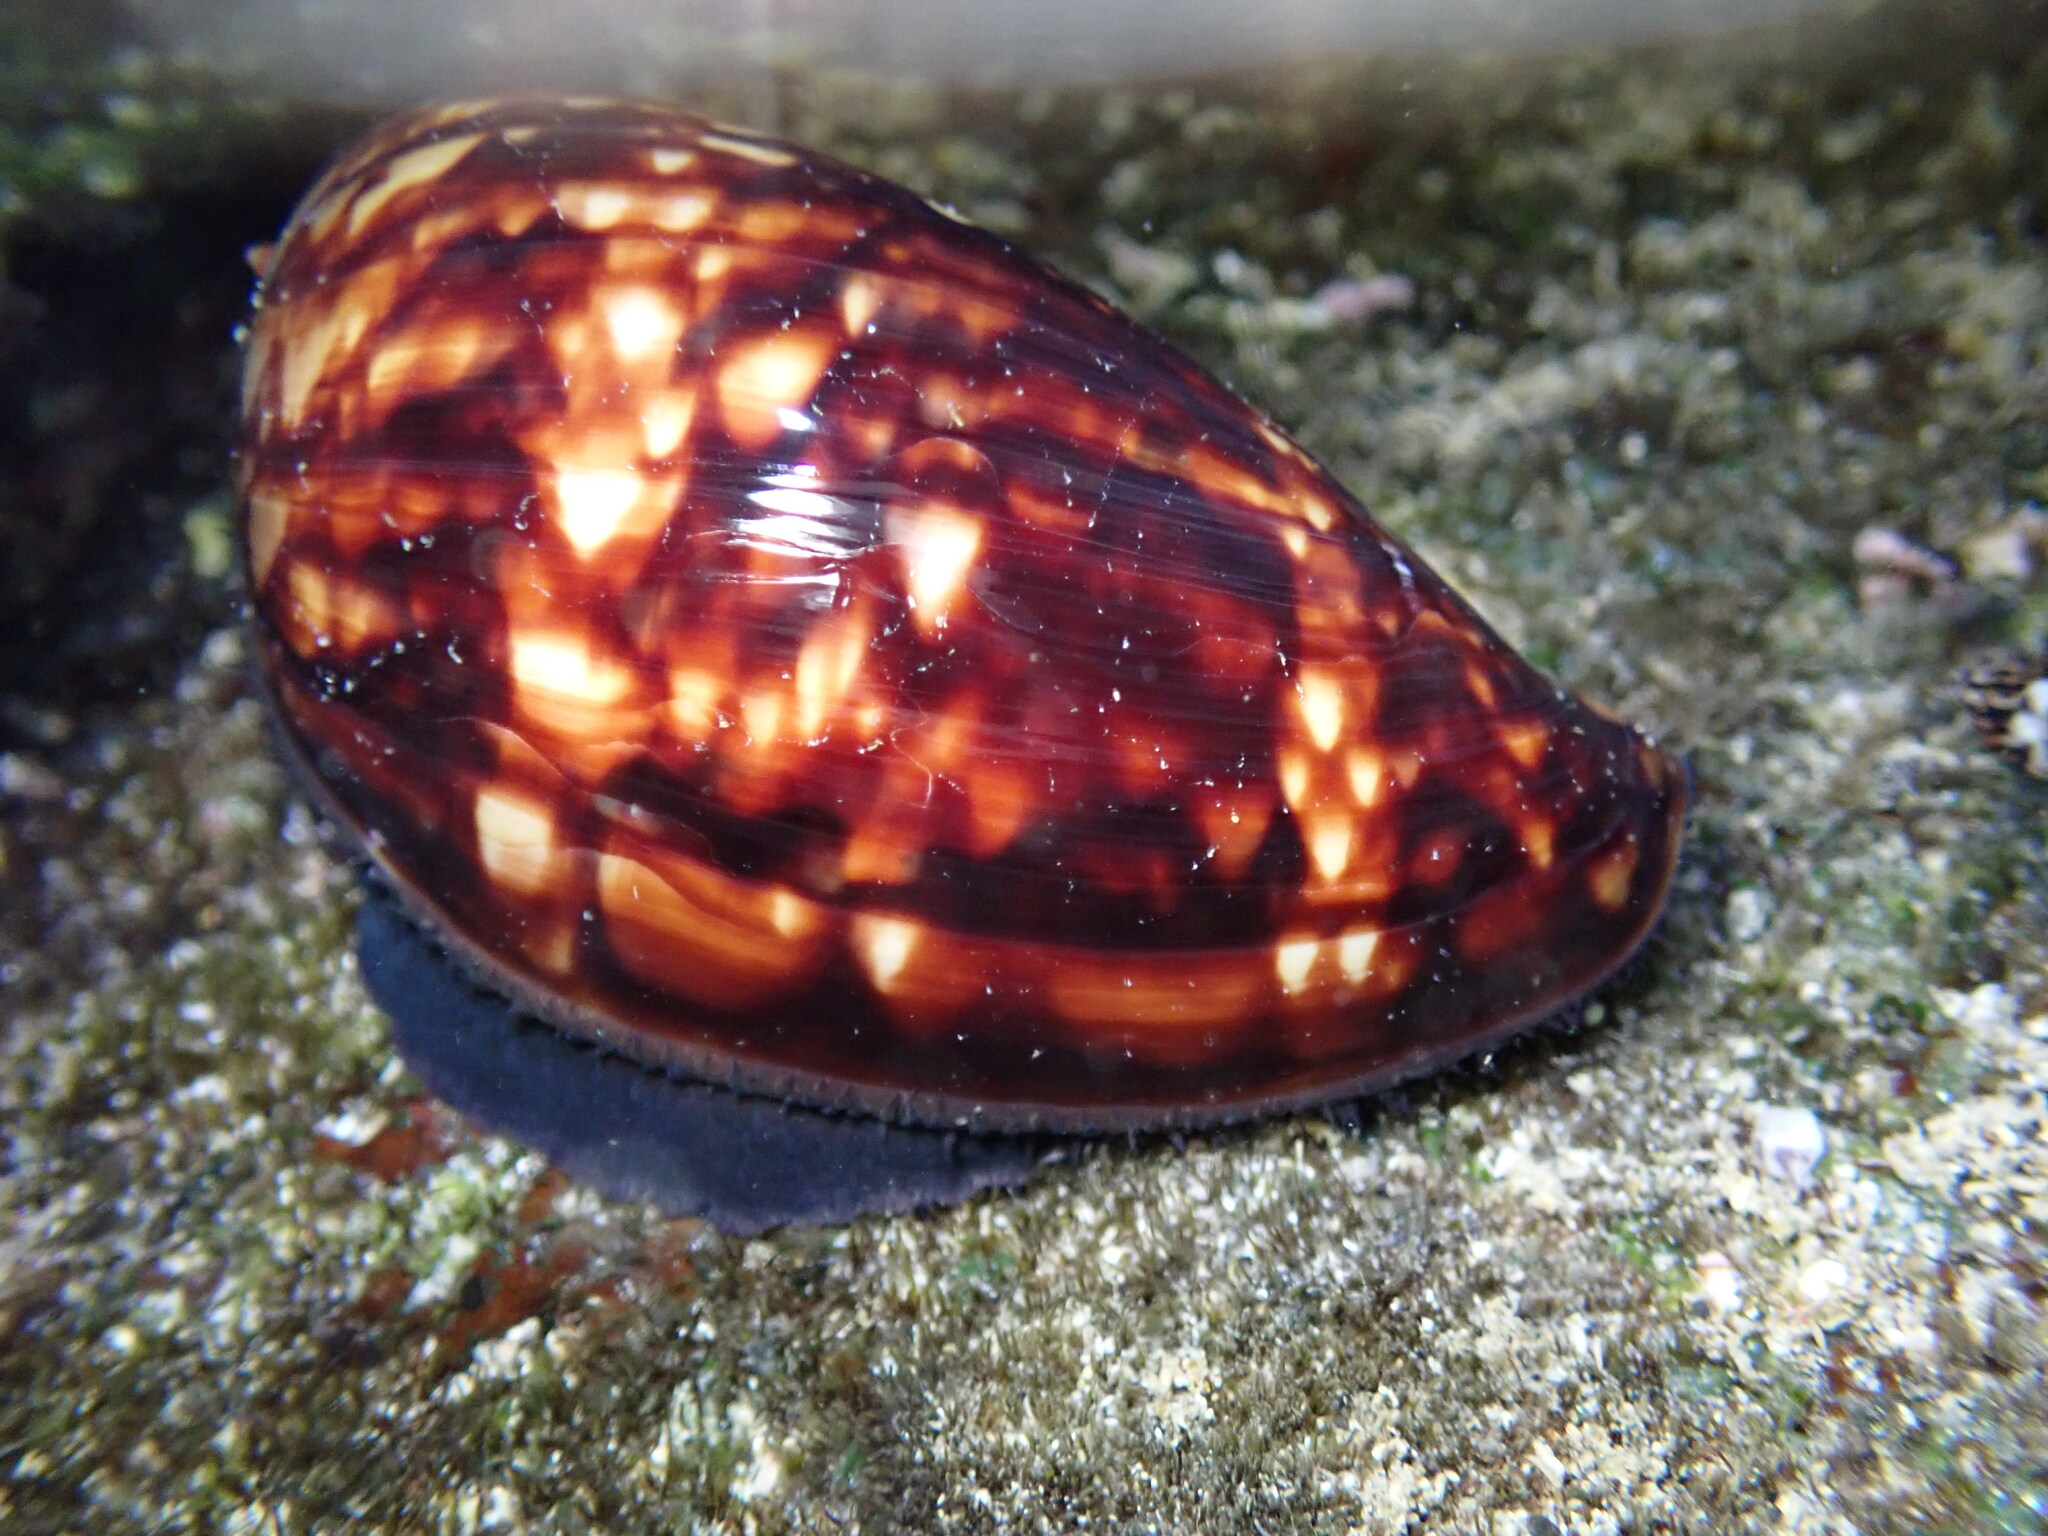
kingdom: Animalia
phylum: Mollusca
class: Gastropoda
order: Littorinimorpha
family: Cypraeidae
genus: Mauritia
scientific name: Mauritia mauritiana
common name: Hump-backed cowrie
